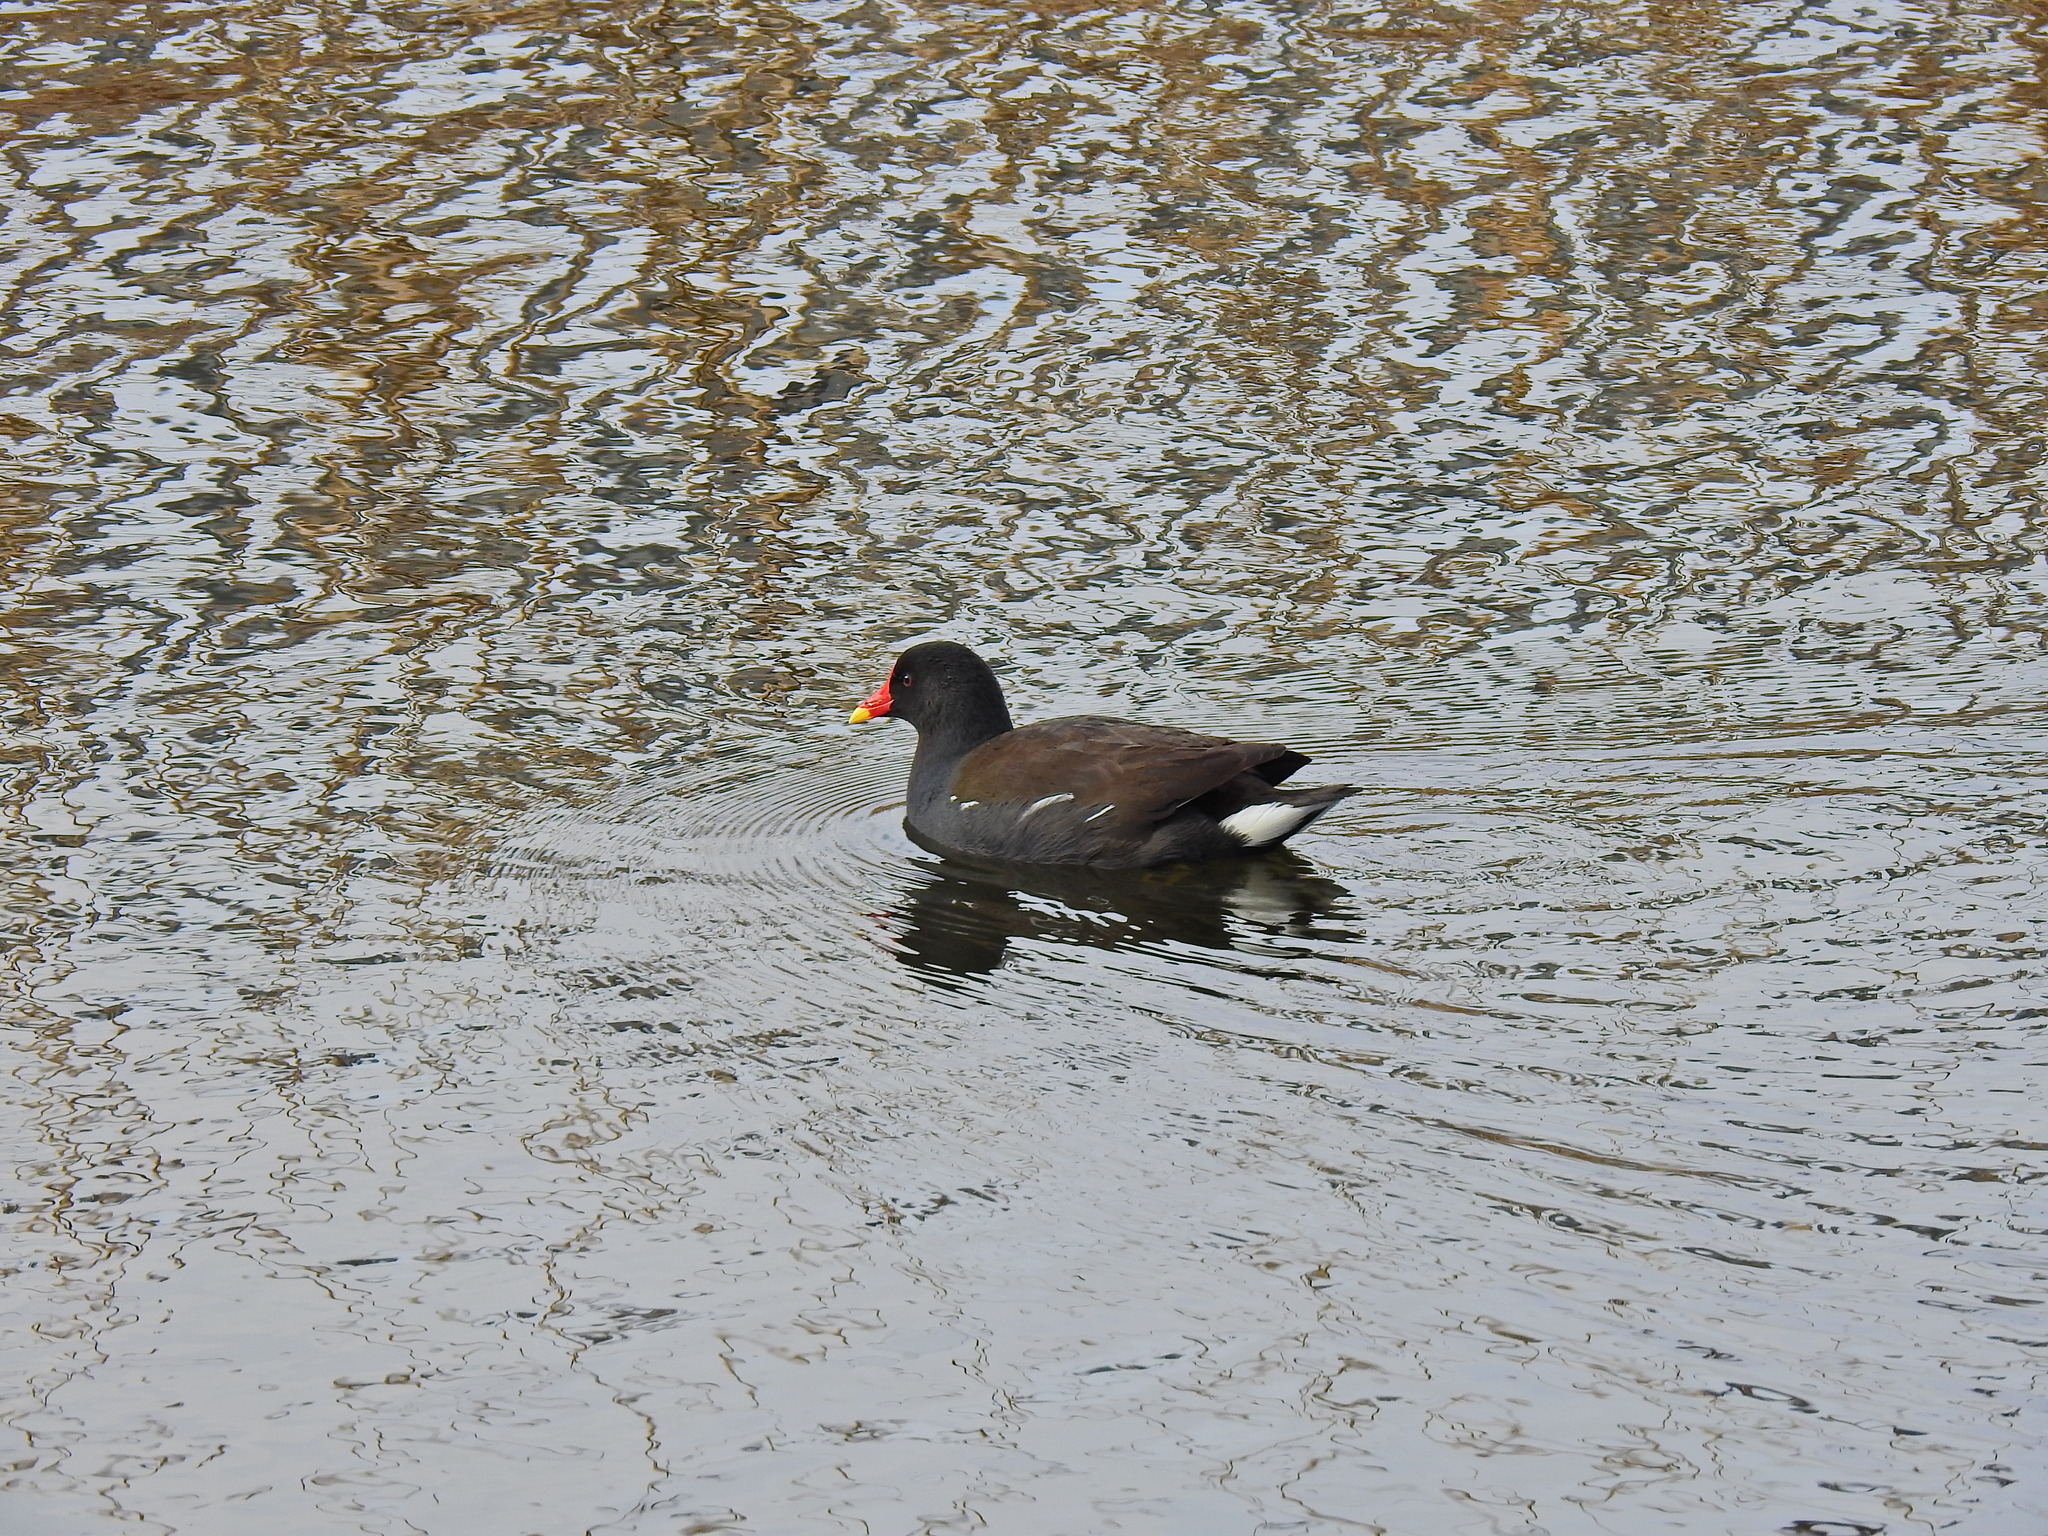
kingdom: Animalia
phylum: Chordata
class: Aves
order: Gruiformes
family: Rallidae
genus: Gallinula
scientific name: Gallinula chloropus
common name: Common moorhen
